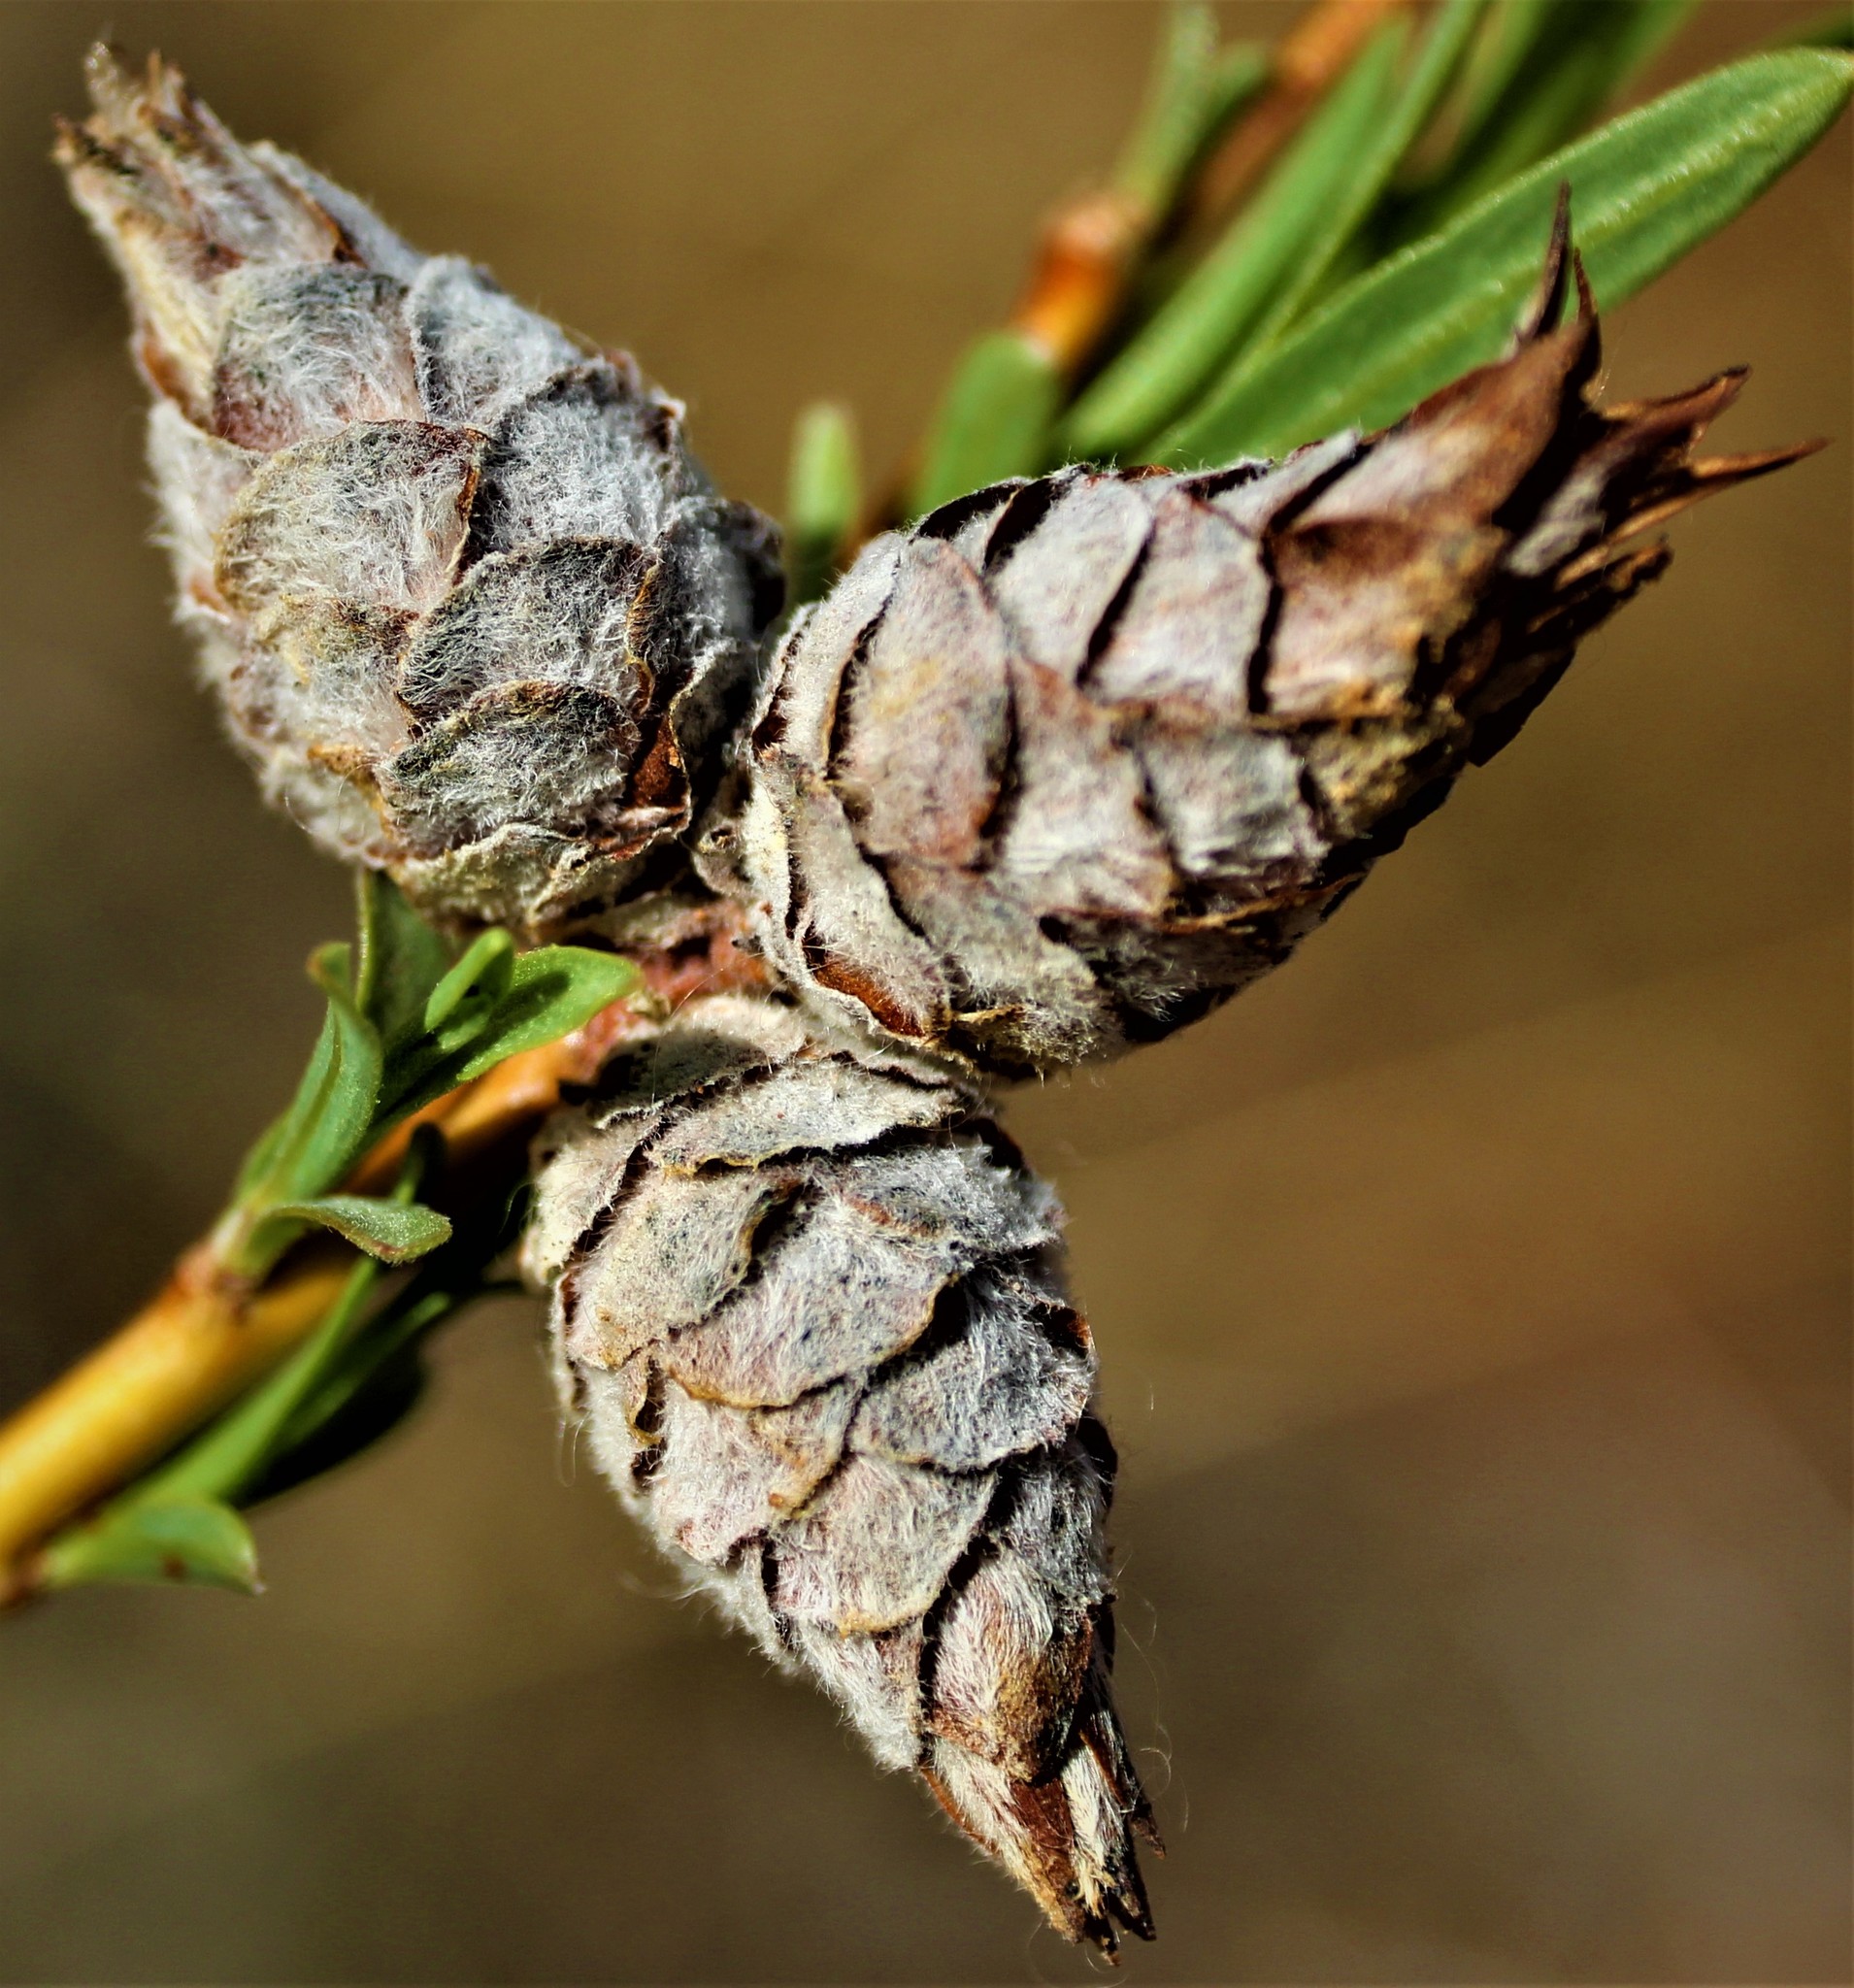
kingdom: Animalia
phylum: Arthropoda
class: Insecta
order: Diptera
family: Cecidomyiidae
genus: Rabdophaga
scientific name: Rabdophaga strobiloides
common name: Willow pinecone gall midge
